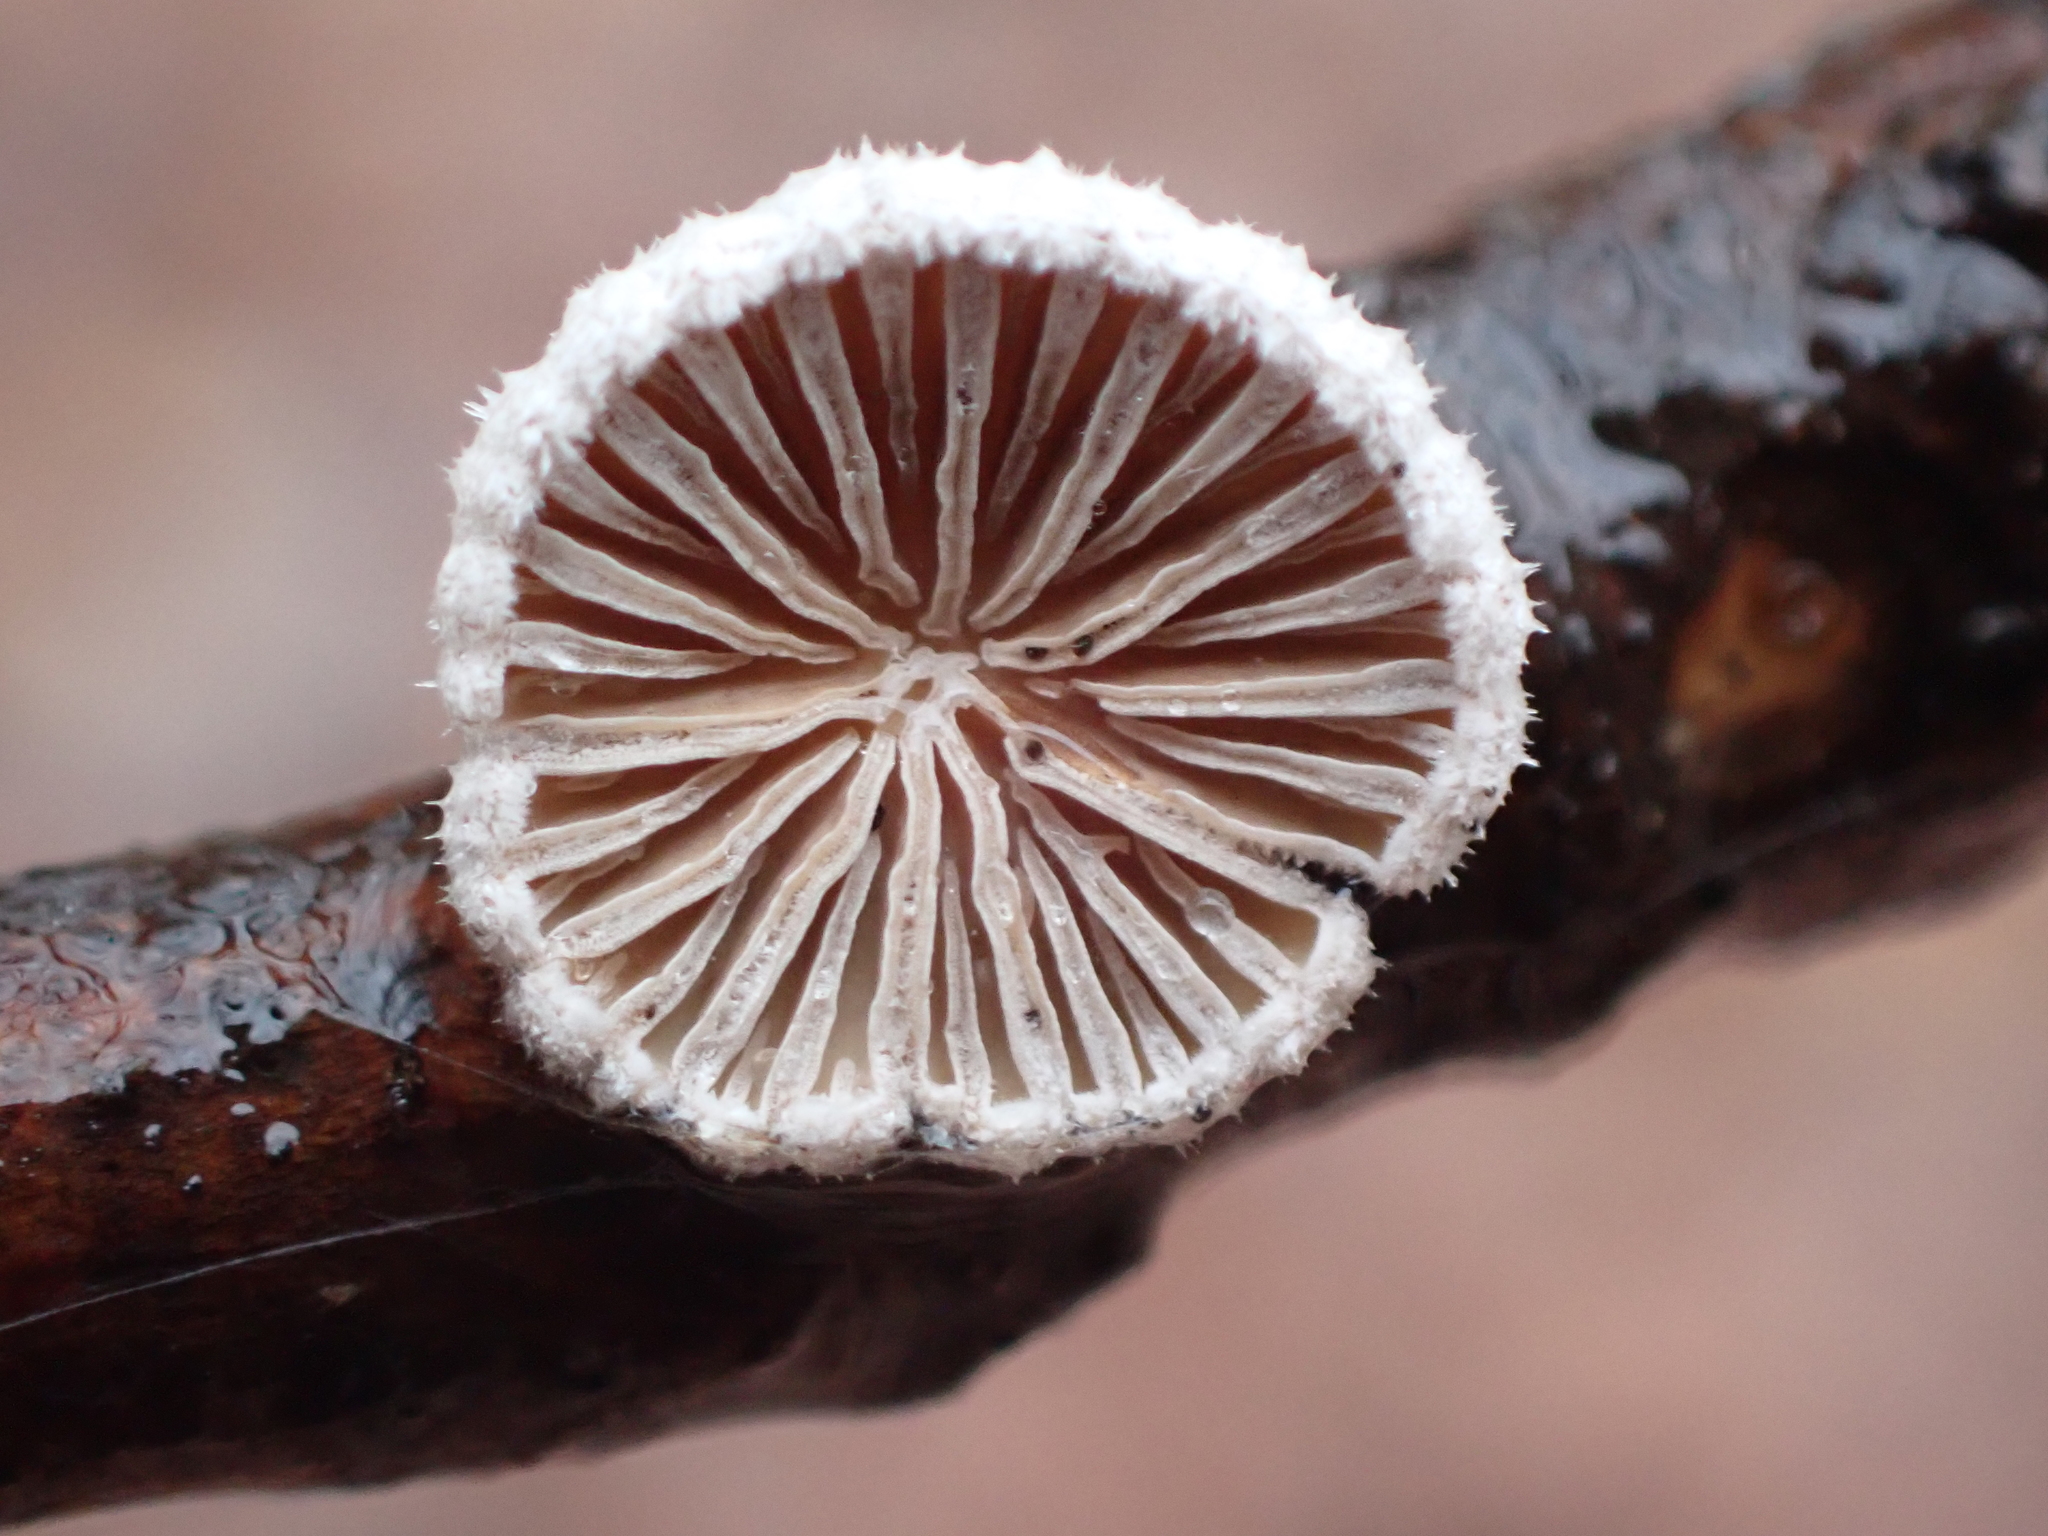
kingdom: Fungi
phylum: Basidiomycota
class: Agaricomycetes
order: Agaricales
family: Schizophyllaceae
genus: Schizophyllum
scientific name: Schizophyllum commune
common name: Common porecrust
